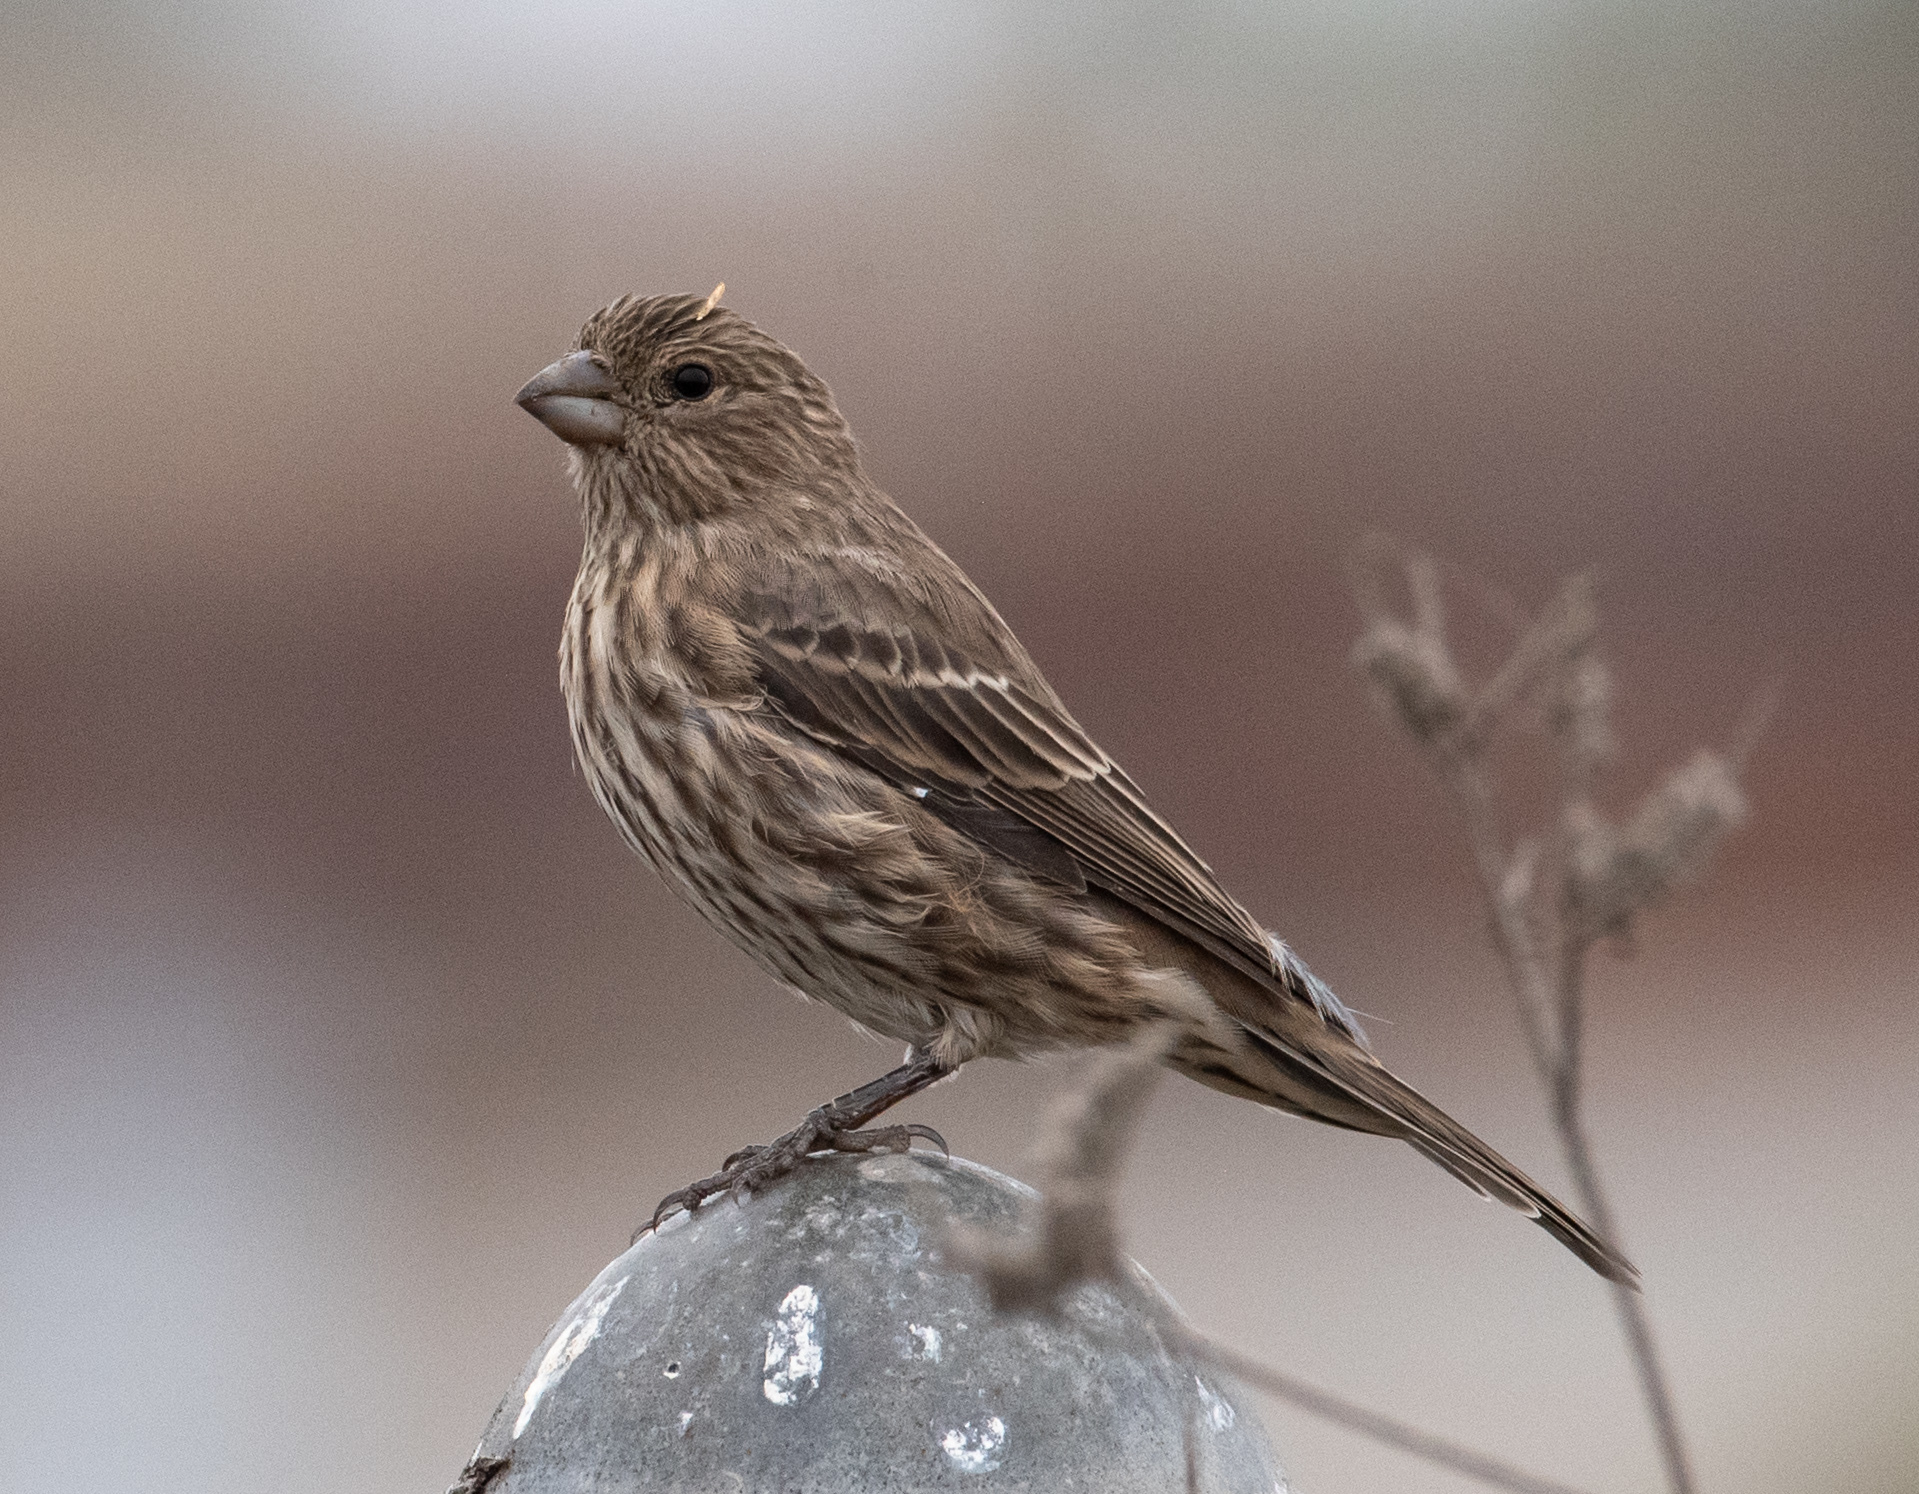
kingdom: Animalia
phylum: Chordata
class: Aves
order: Passeriformes
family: Fringillidae
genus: Haemorhous
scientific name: Haemorhous mexicanus
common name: House finch
